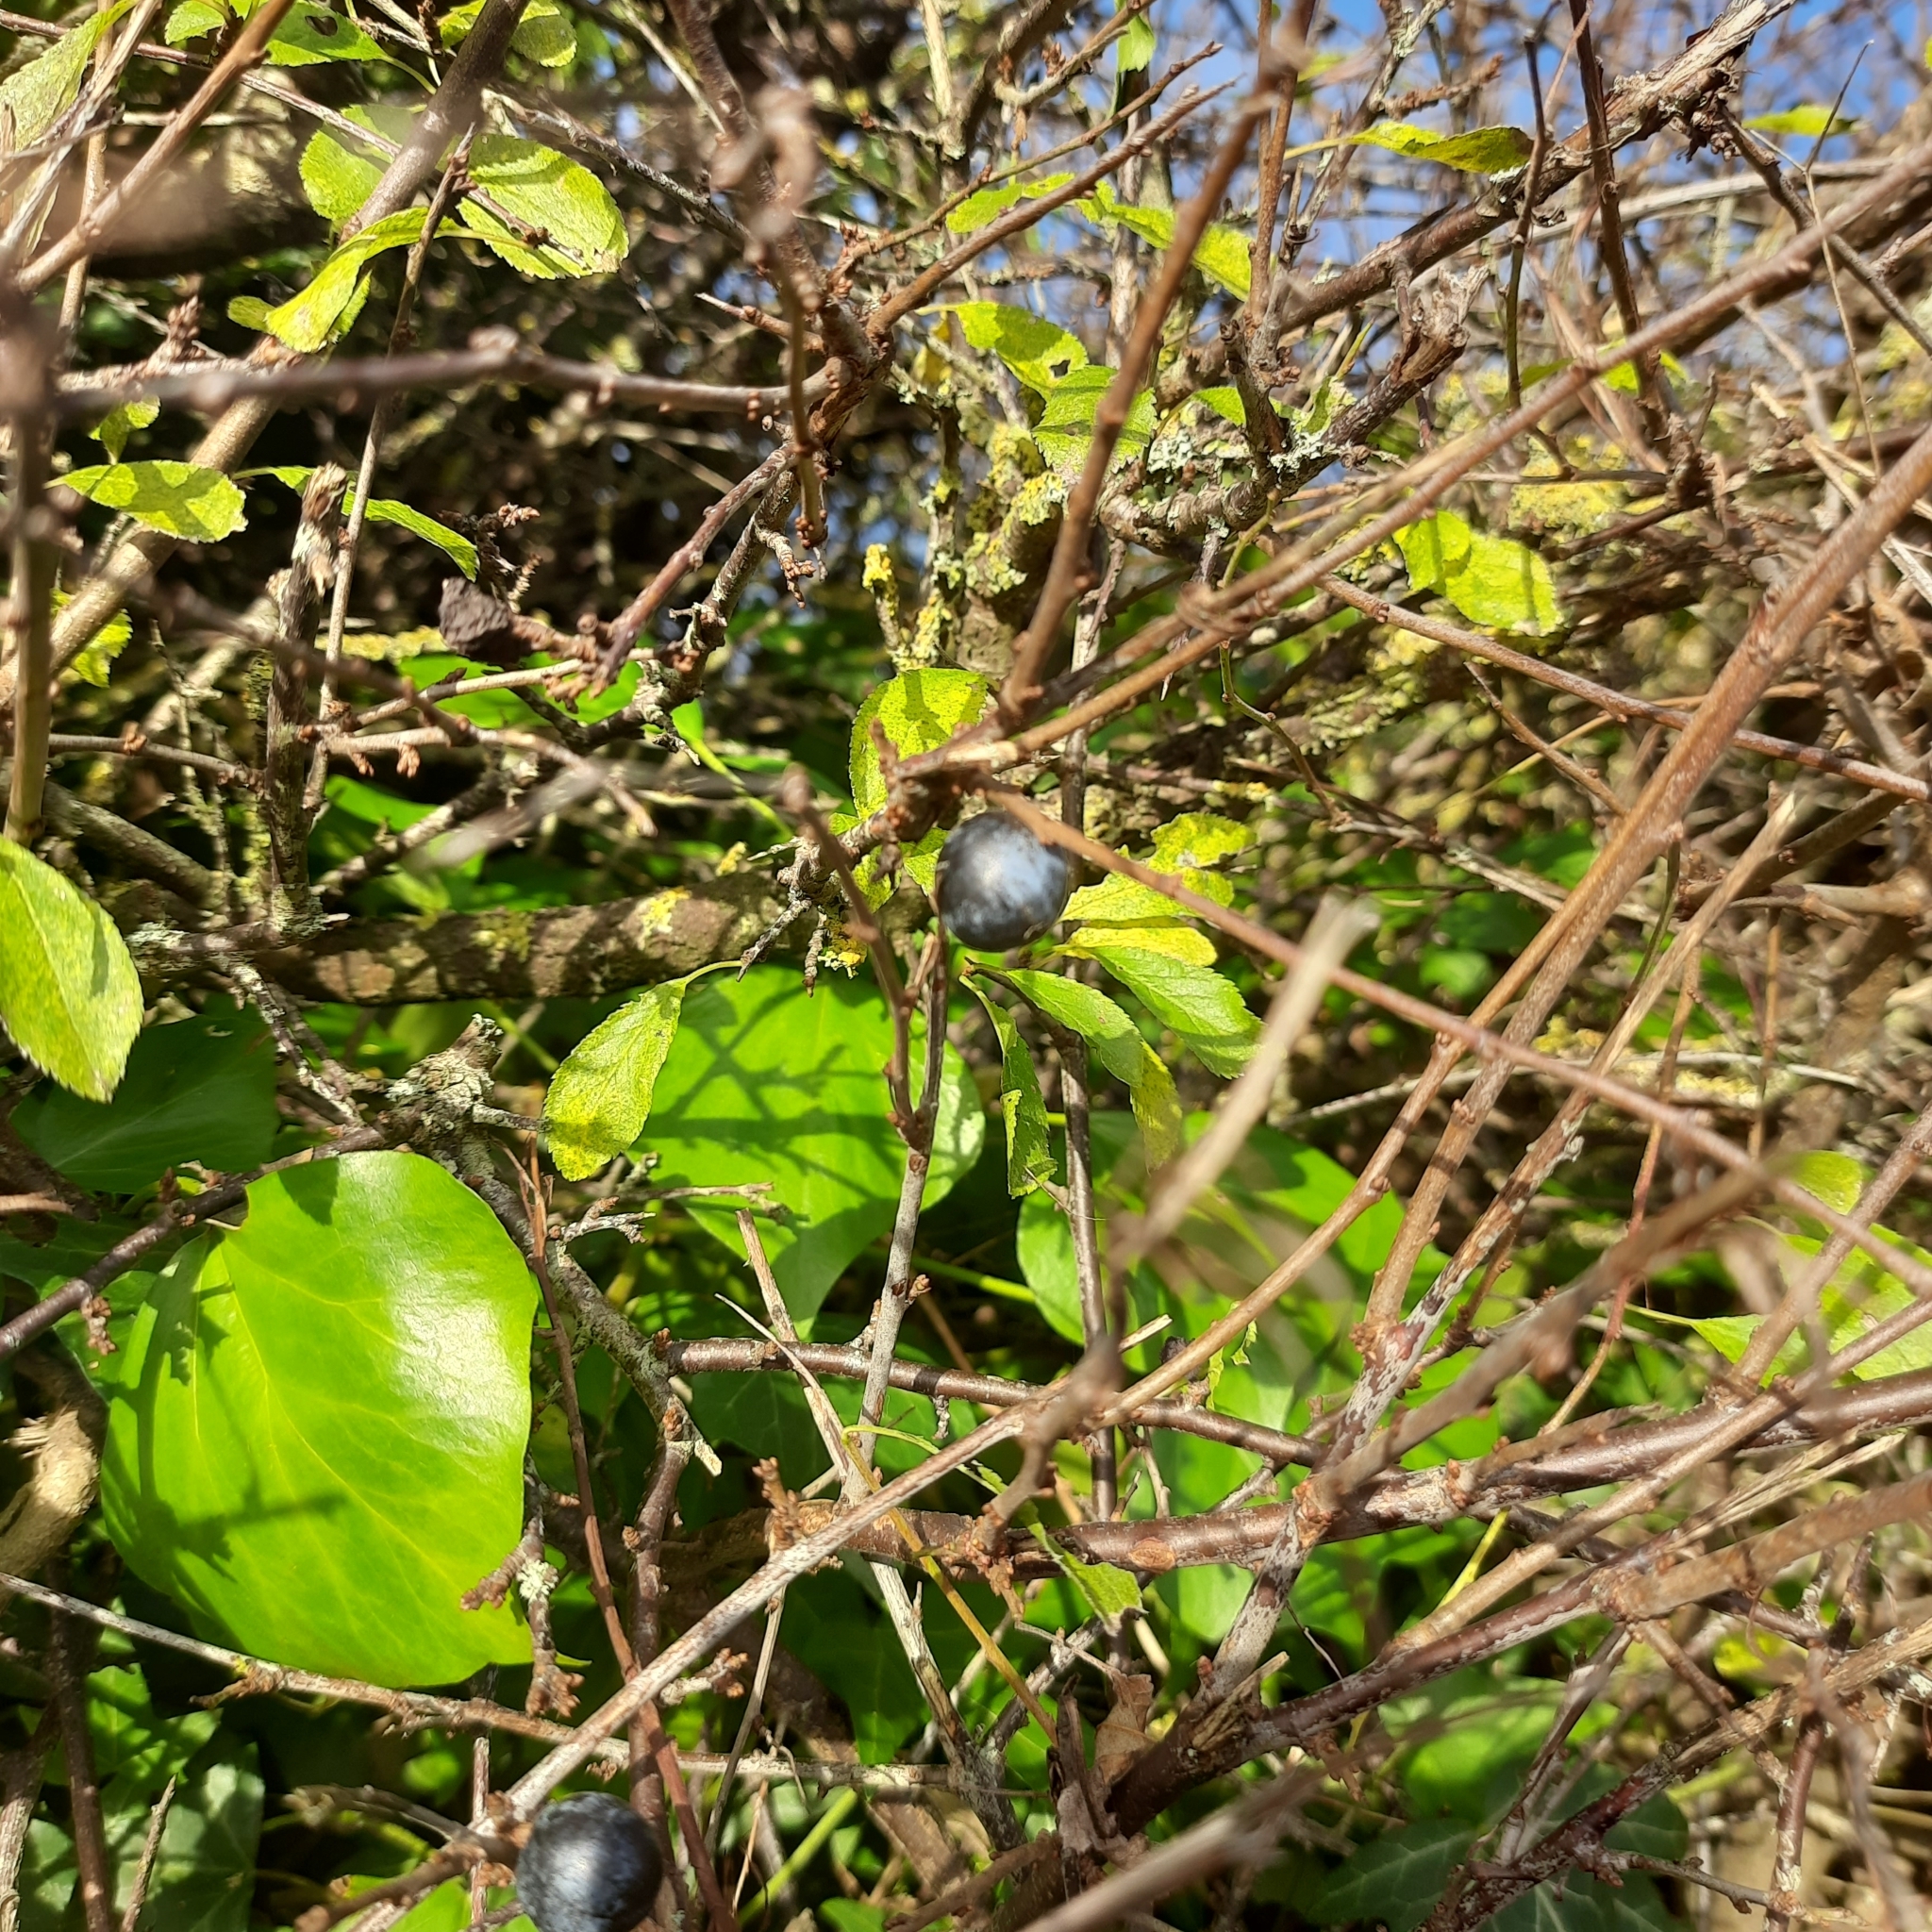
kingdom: Plantae
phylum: Tracheophyta
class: Magnoliopsida
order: Rosales
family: Rosaceae
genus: Prunus
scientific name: Prunus spinosa
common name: Blackthorn
